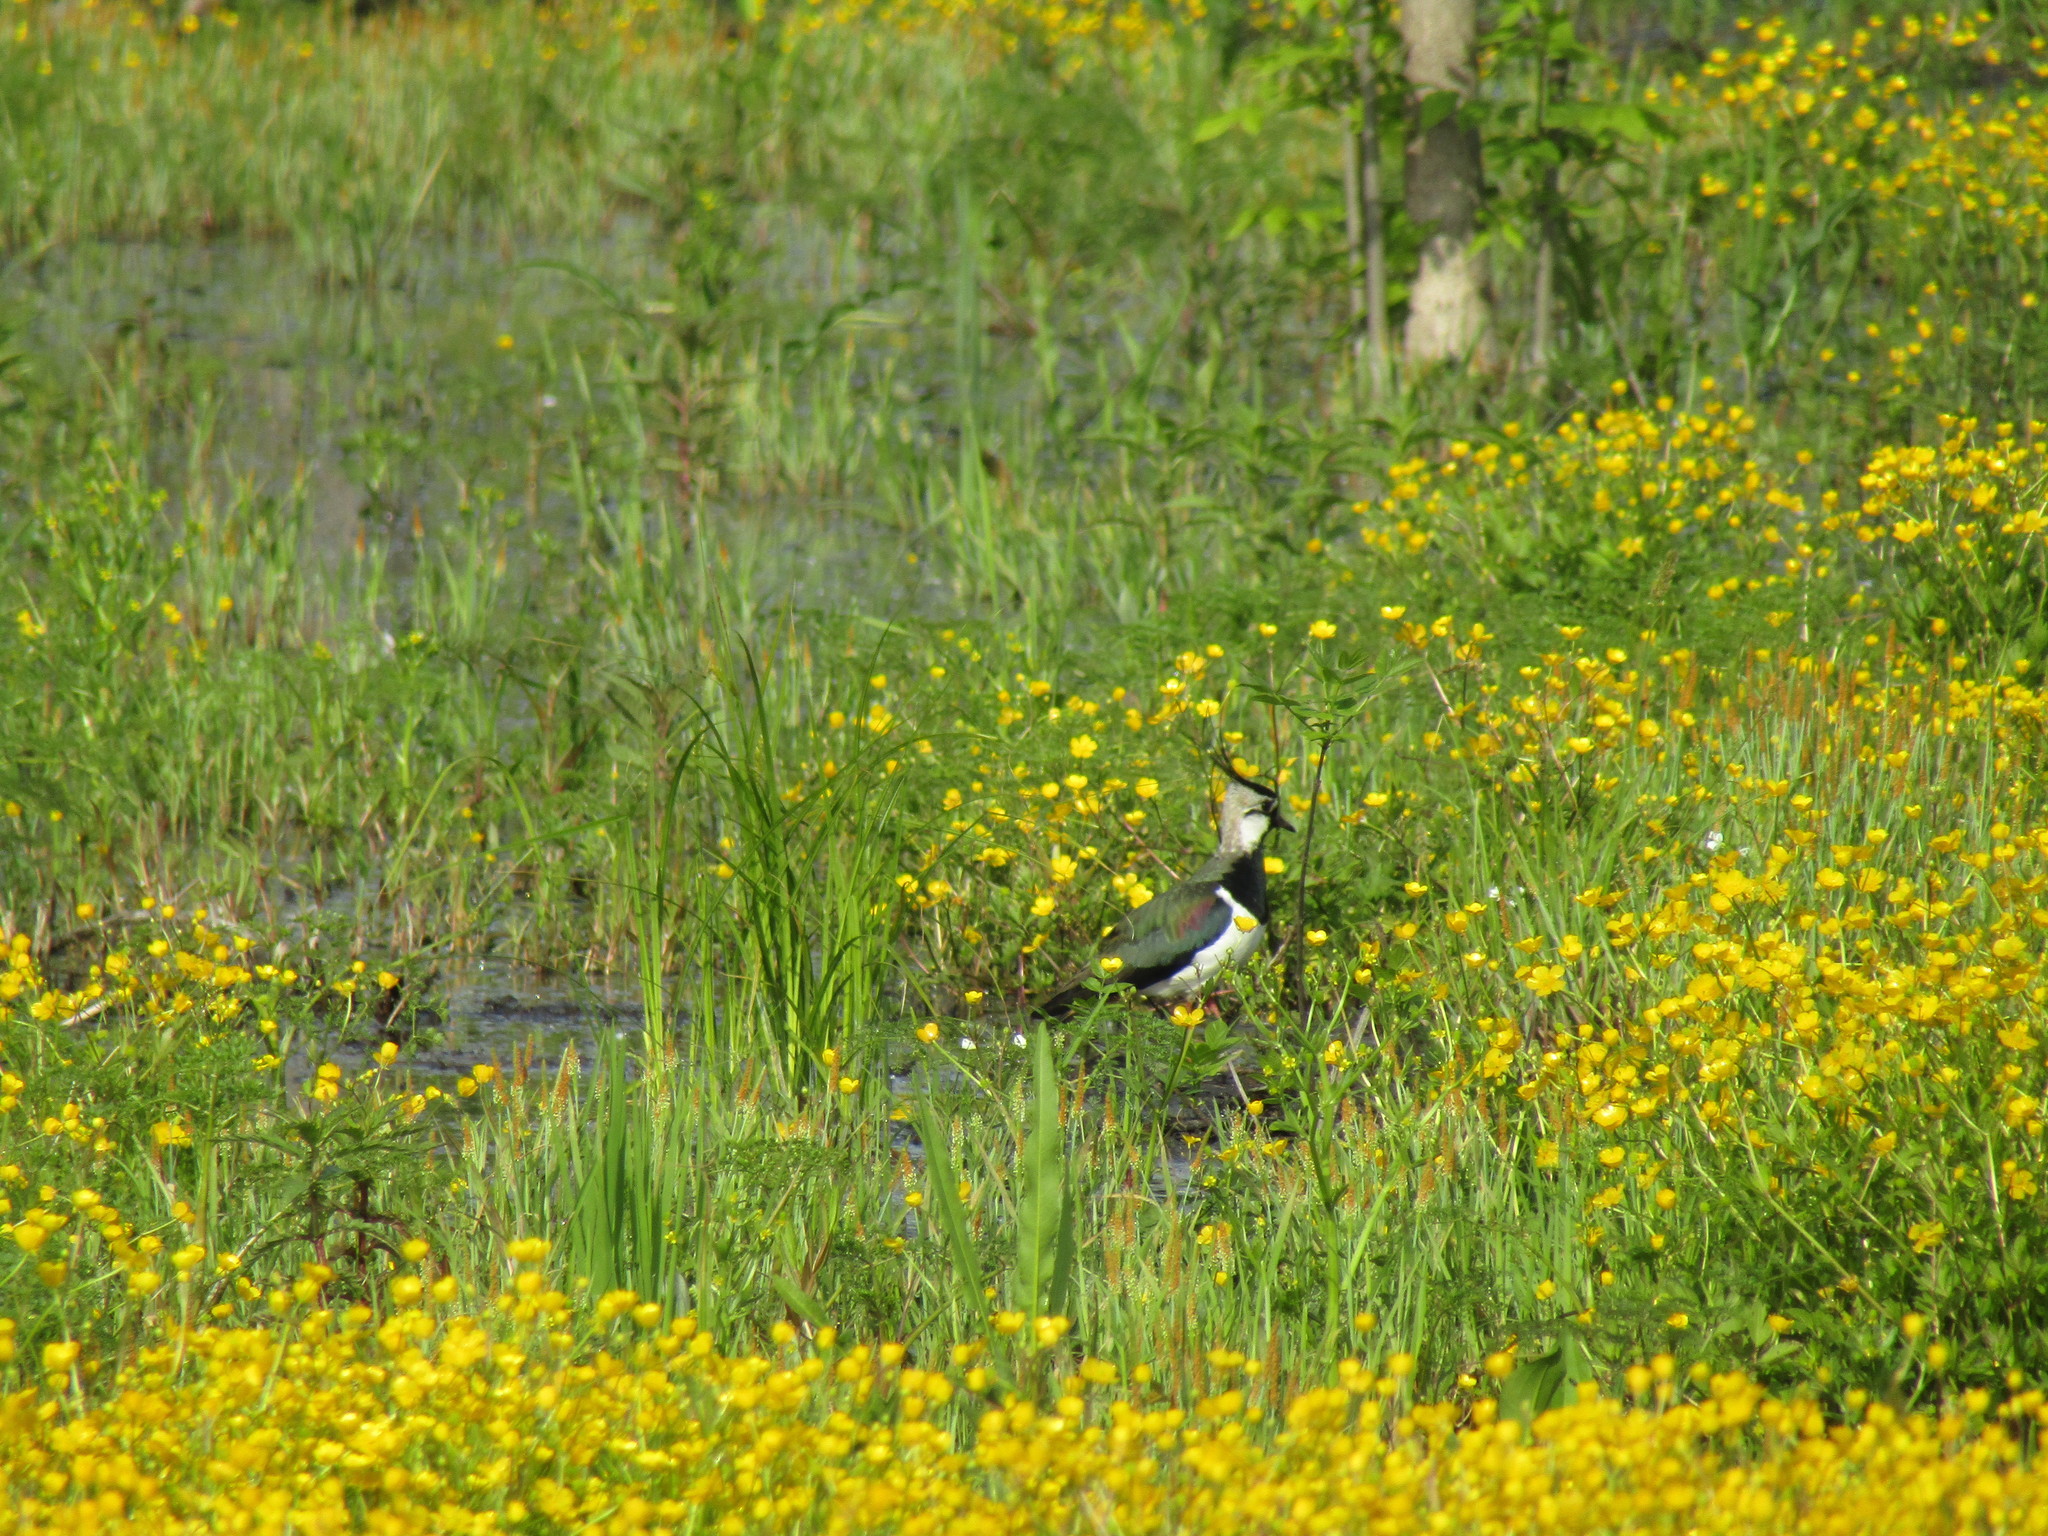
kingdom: Animalia
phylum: Chordata
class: Aves
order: Charadriiformes
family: Charadriidae
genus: Vanellus
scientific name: Vanellus vanellus
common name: Northern lapwing
